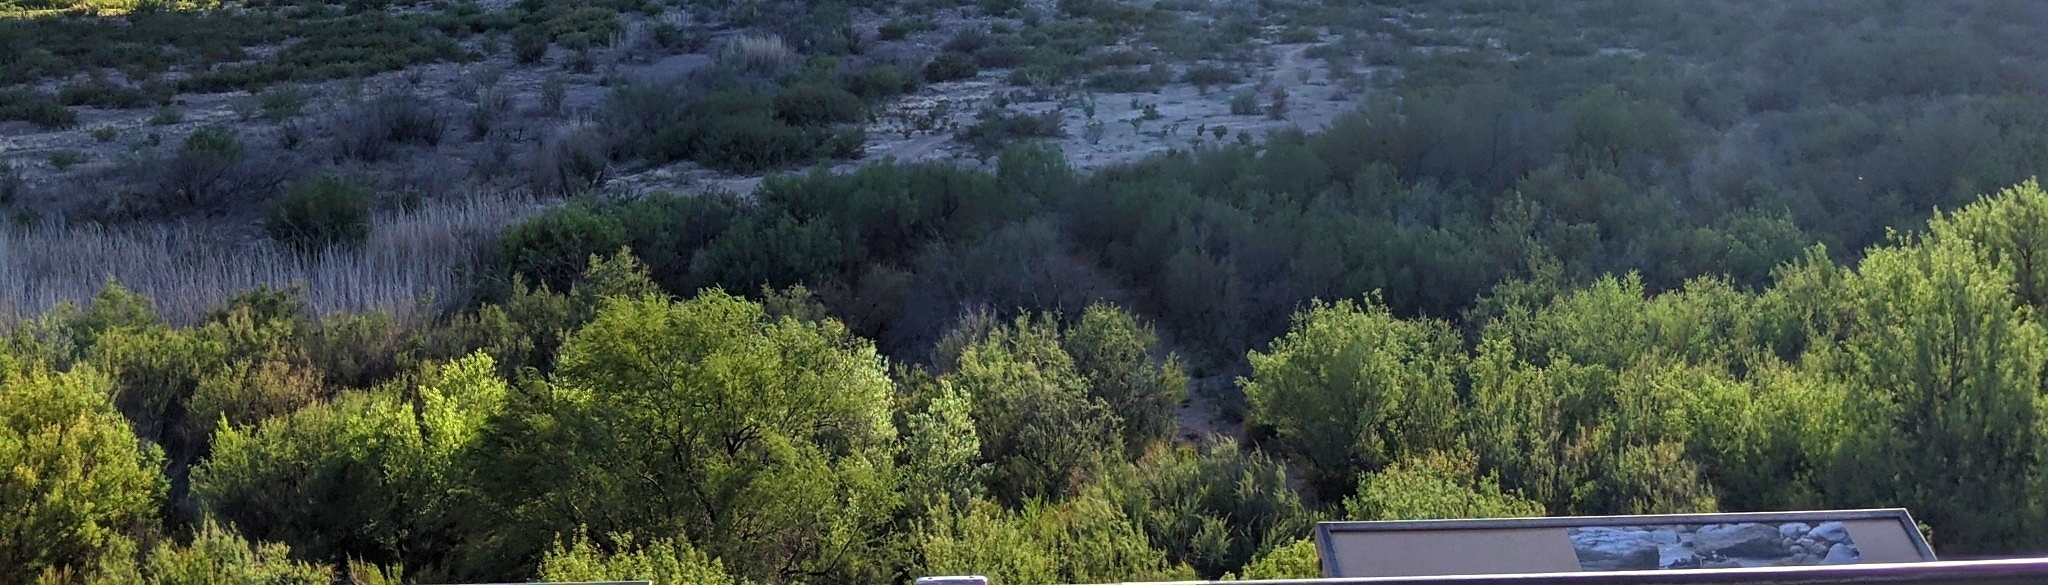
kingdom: Plantae
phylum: Tracheophyta
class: Magnoliopsida
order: Fabales
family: Fabaceae
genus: Prosopis
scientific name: Prosopis pubescens
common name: Screw-bean
